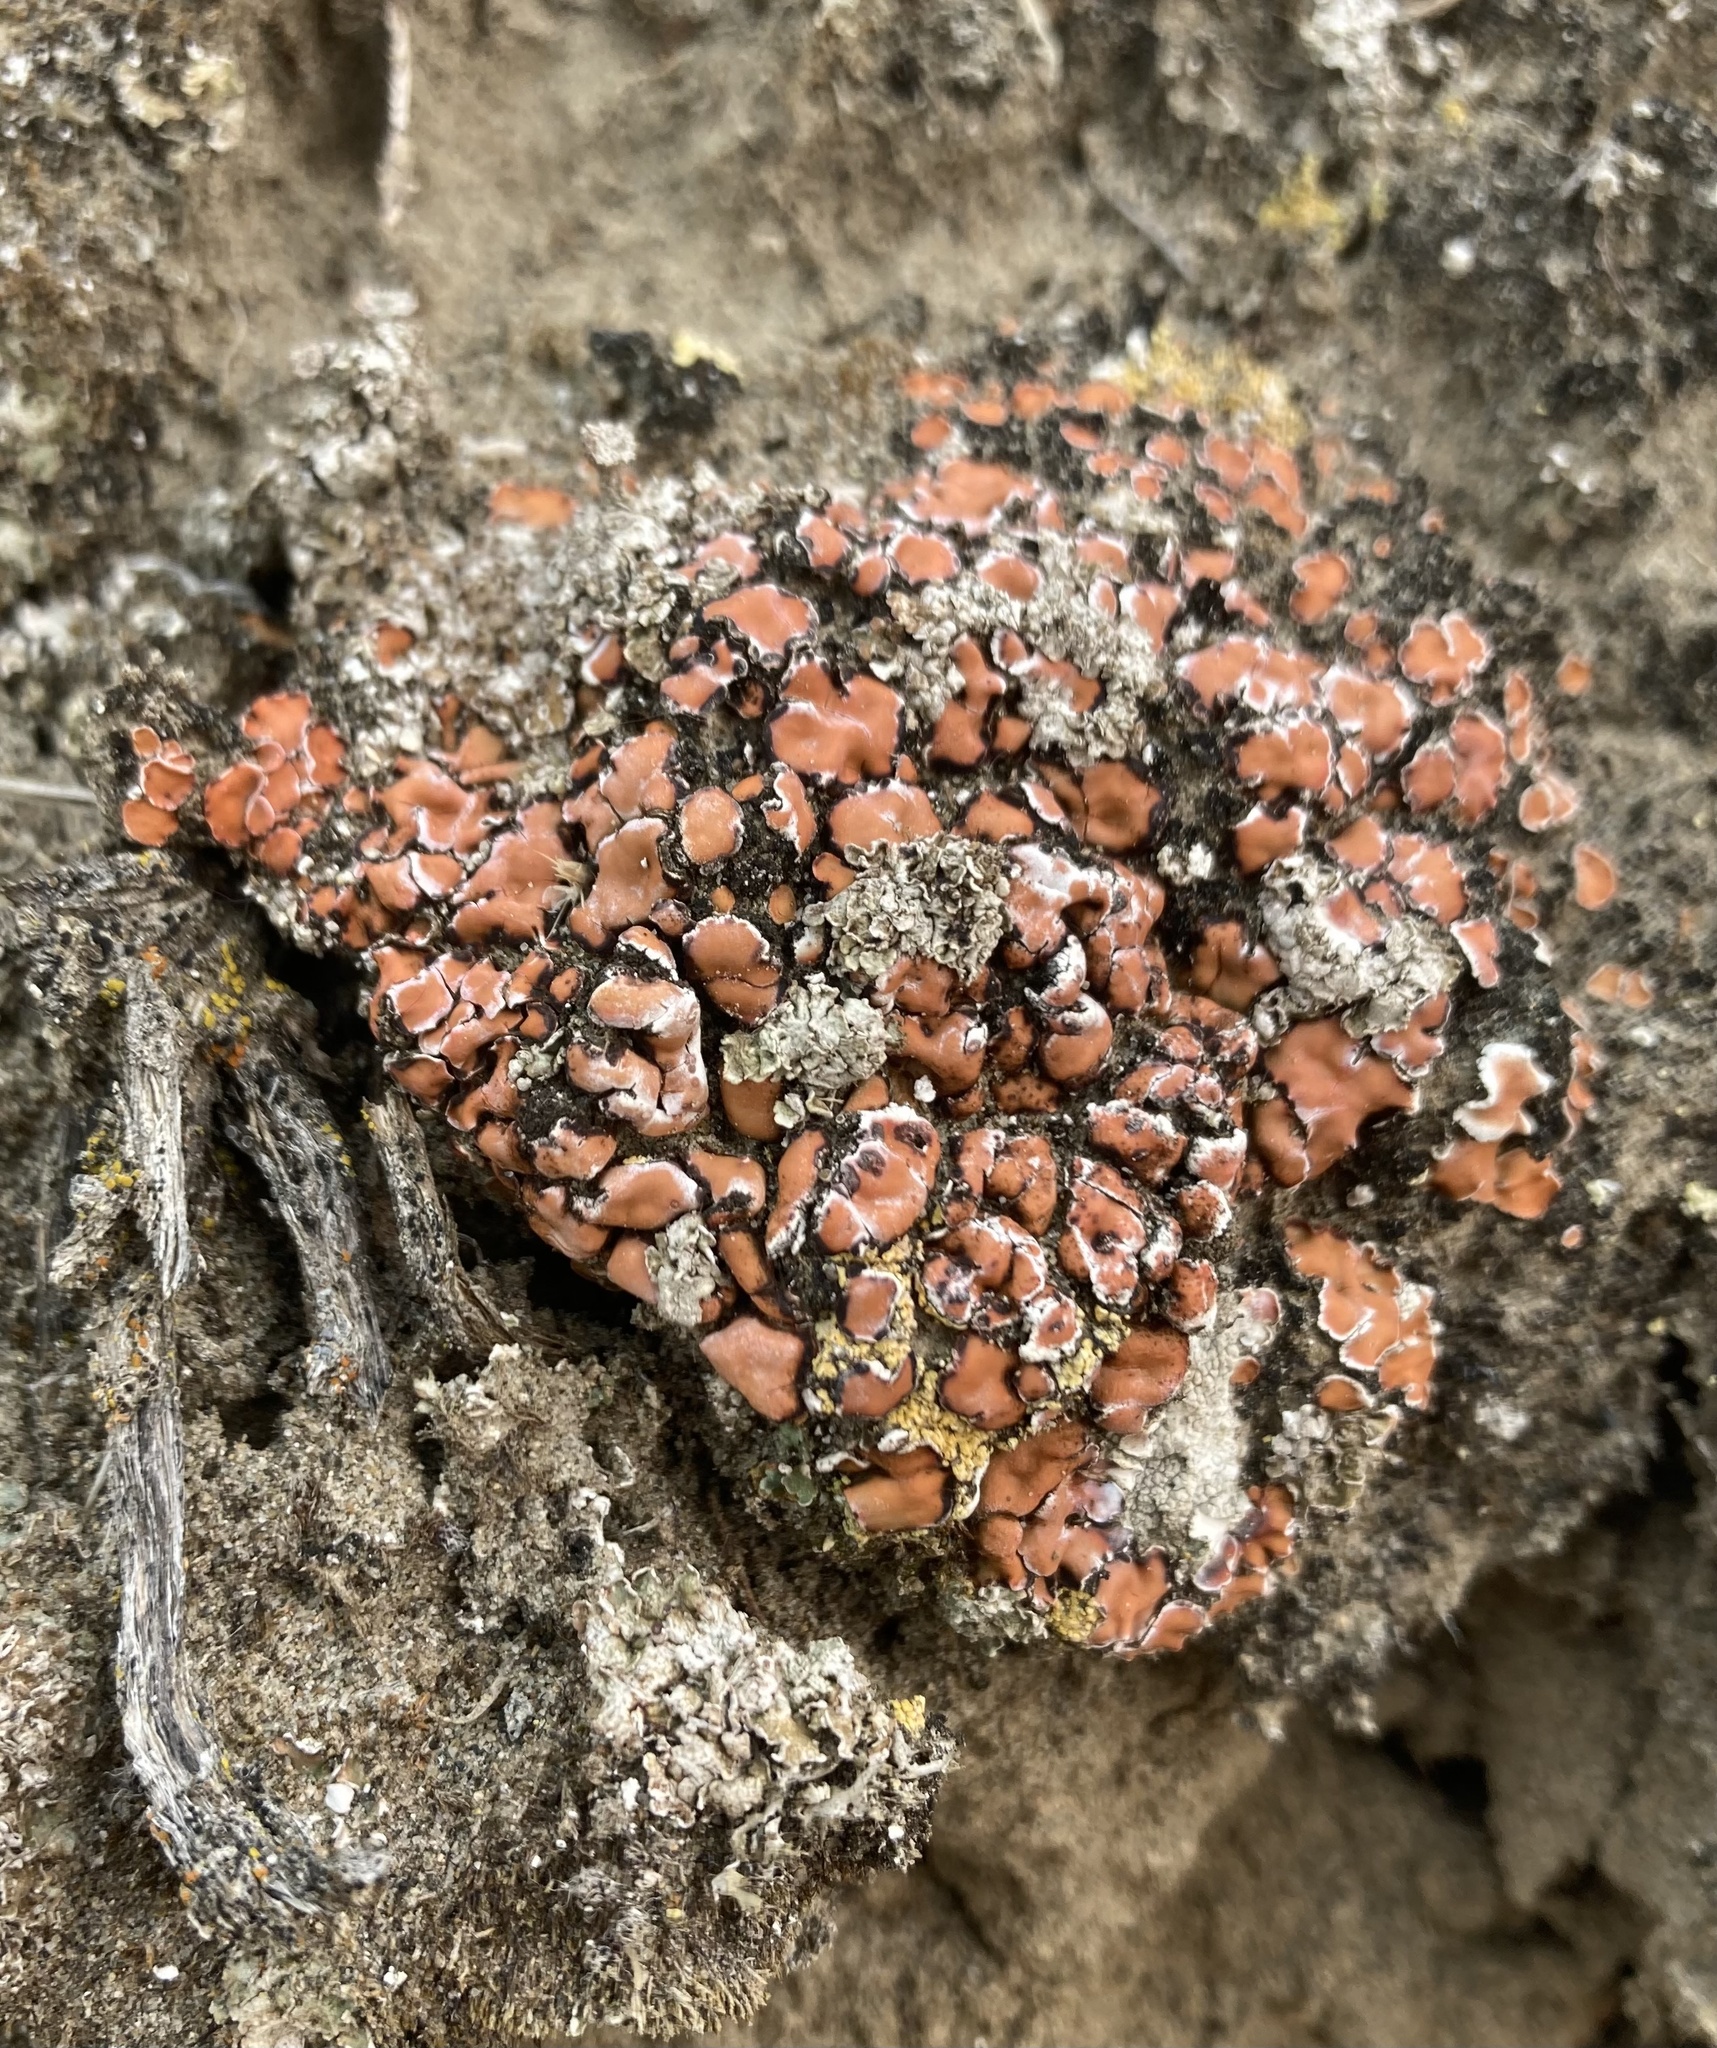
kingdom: Fungi
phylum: Ascomycota
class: Lecanoromycetes
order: Lecanorales
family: Psoraceae
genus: Psora
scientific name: Psora decipiens
